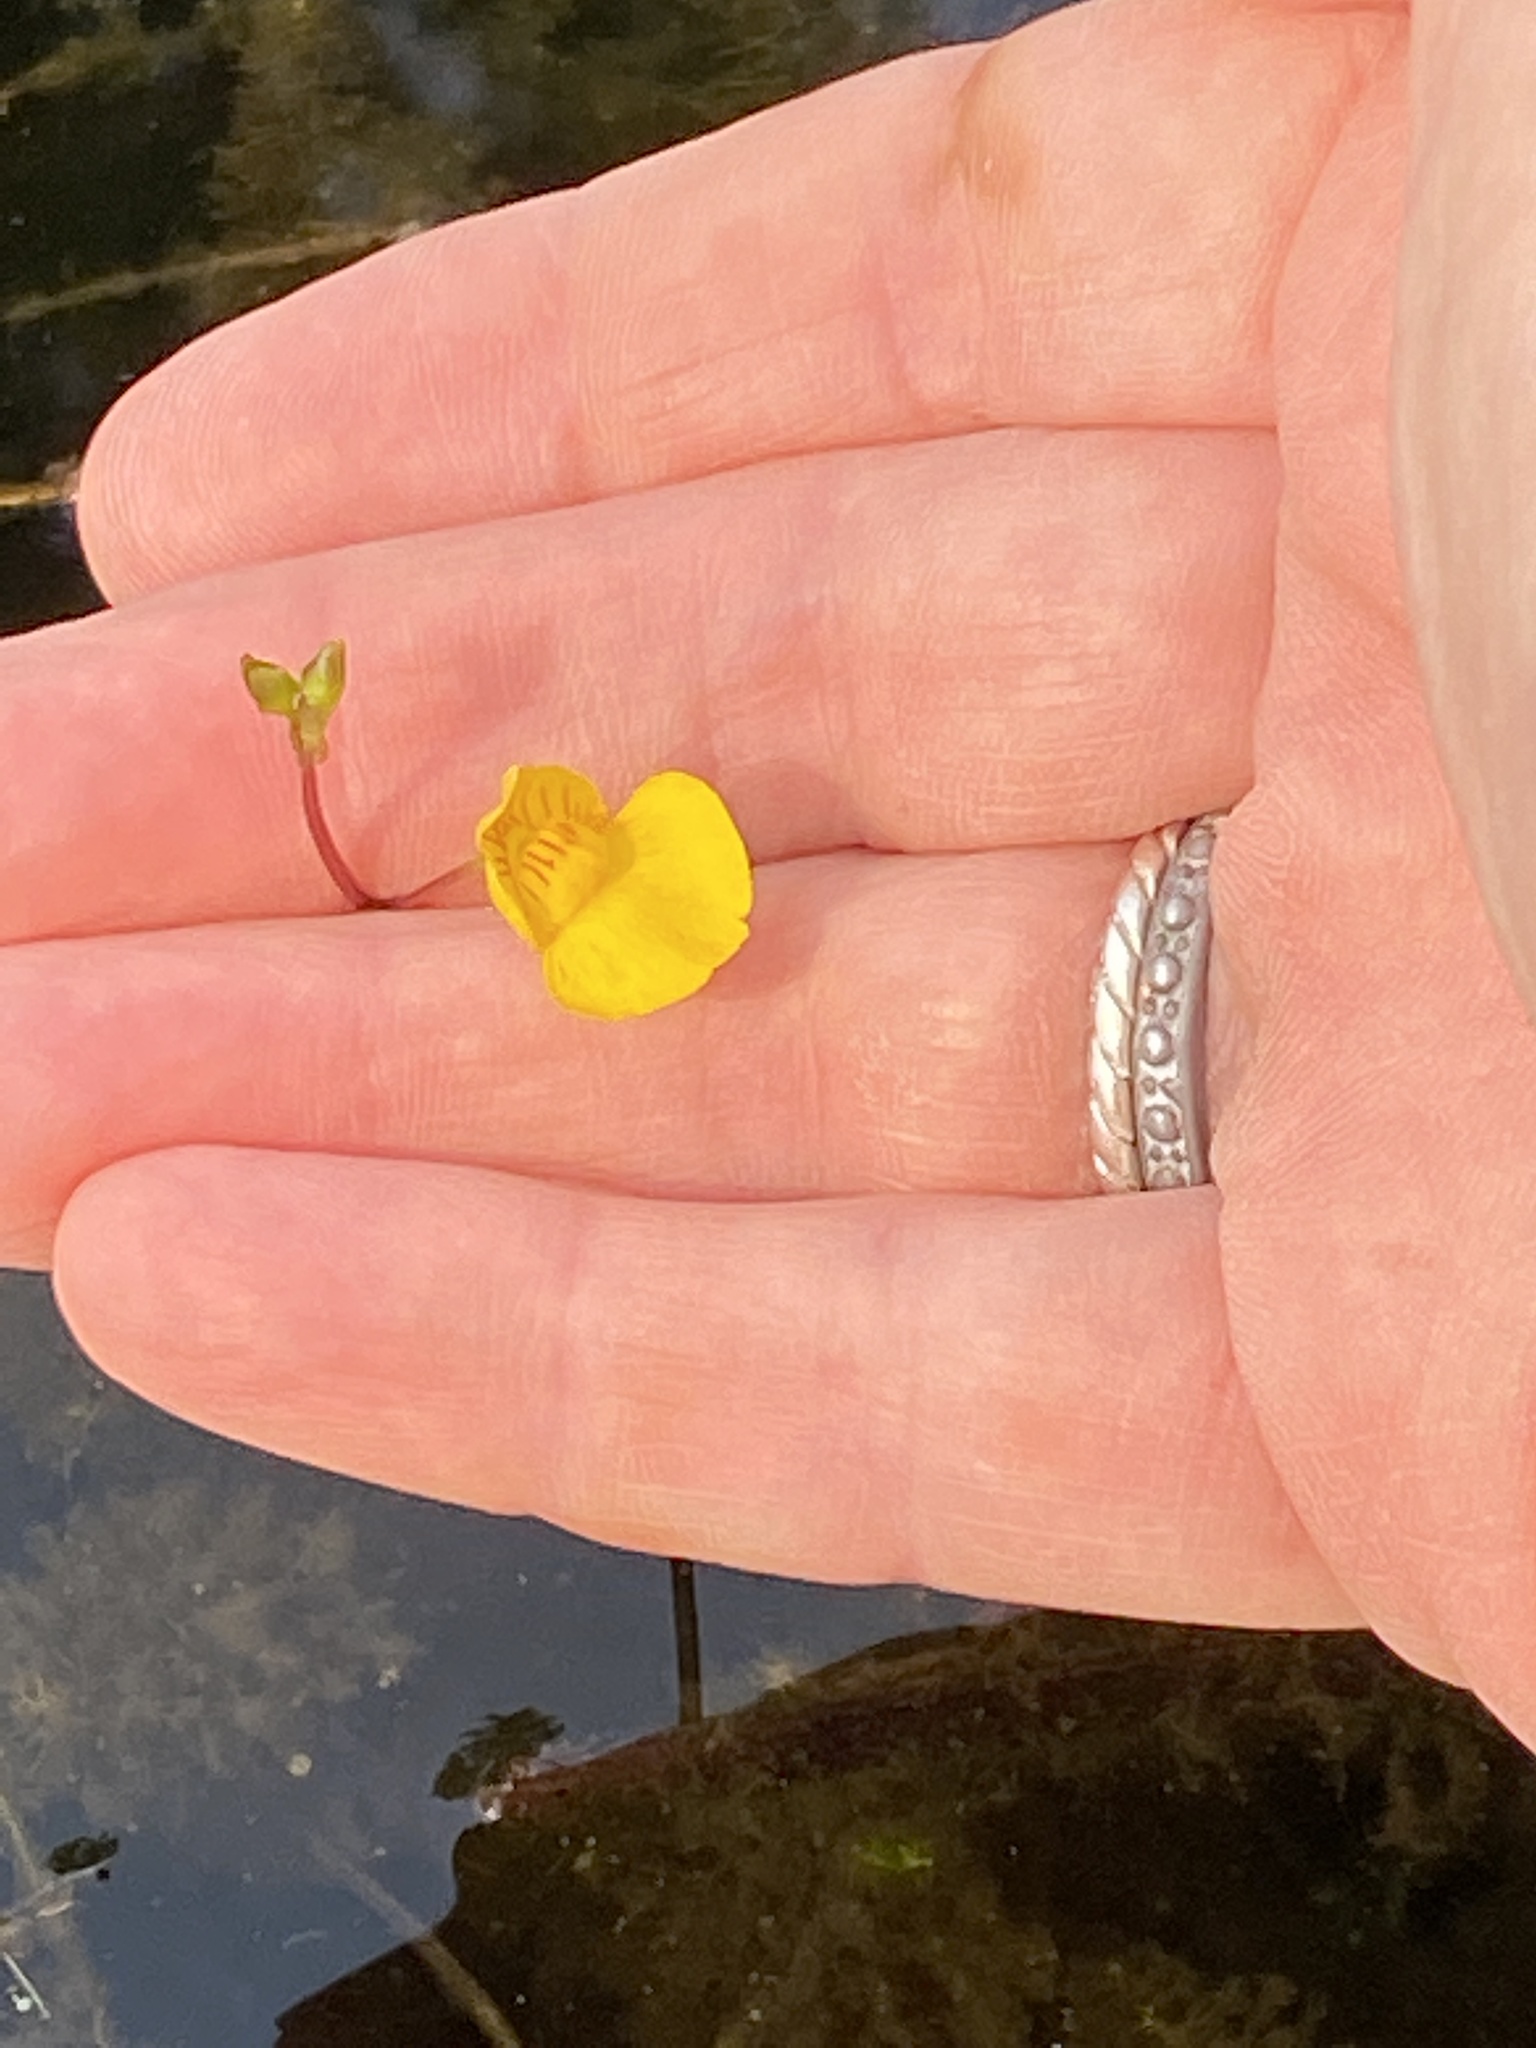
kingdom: Plantae
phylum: Tracheophyta
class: Magnoliopsida
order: Lamiales
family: Lentibulariaceae
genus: Utricularia
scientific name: Utricularia intermedia
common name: Intermediate bladderwort
